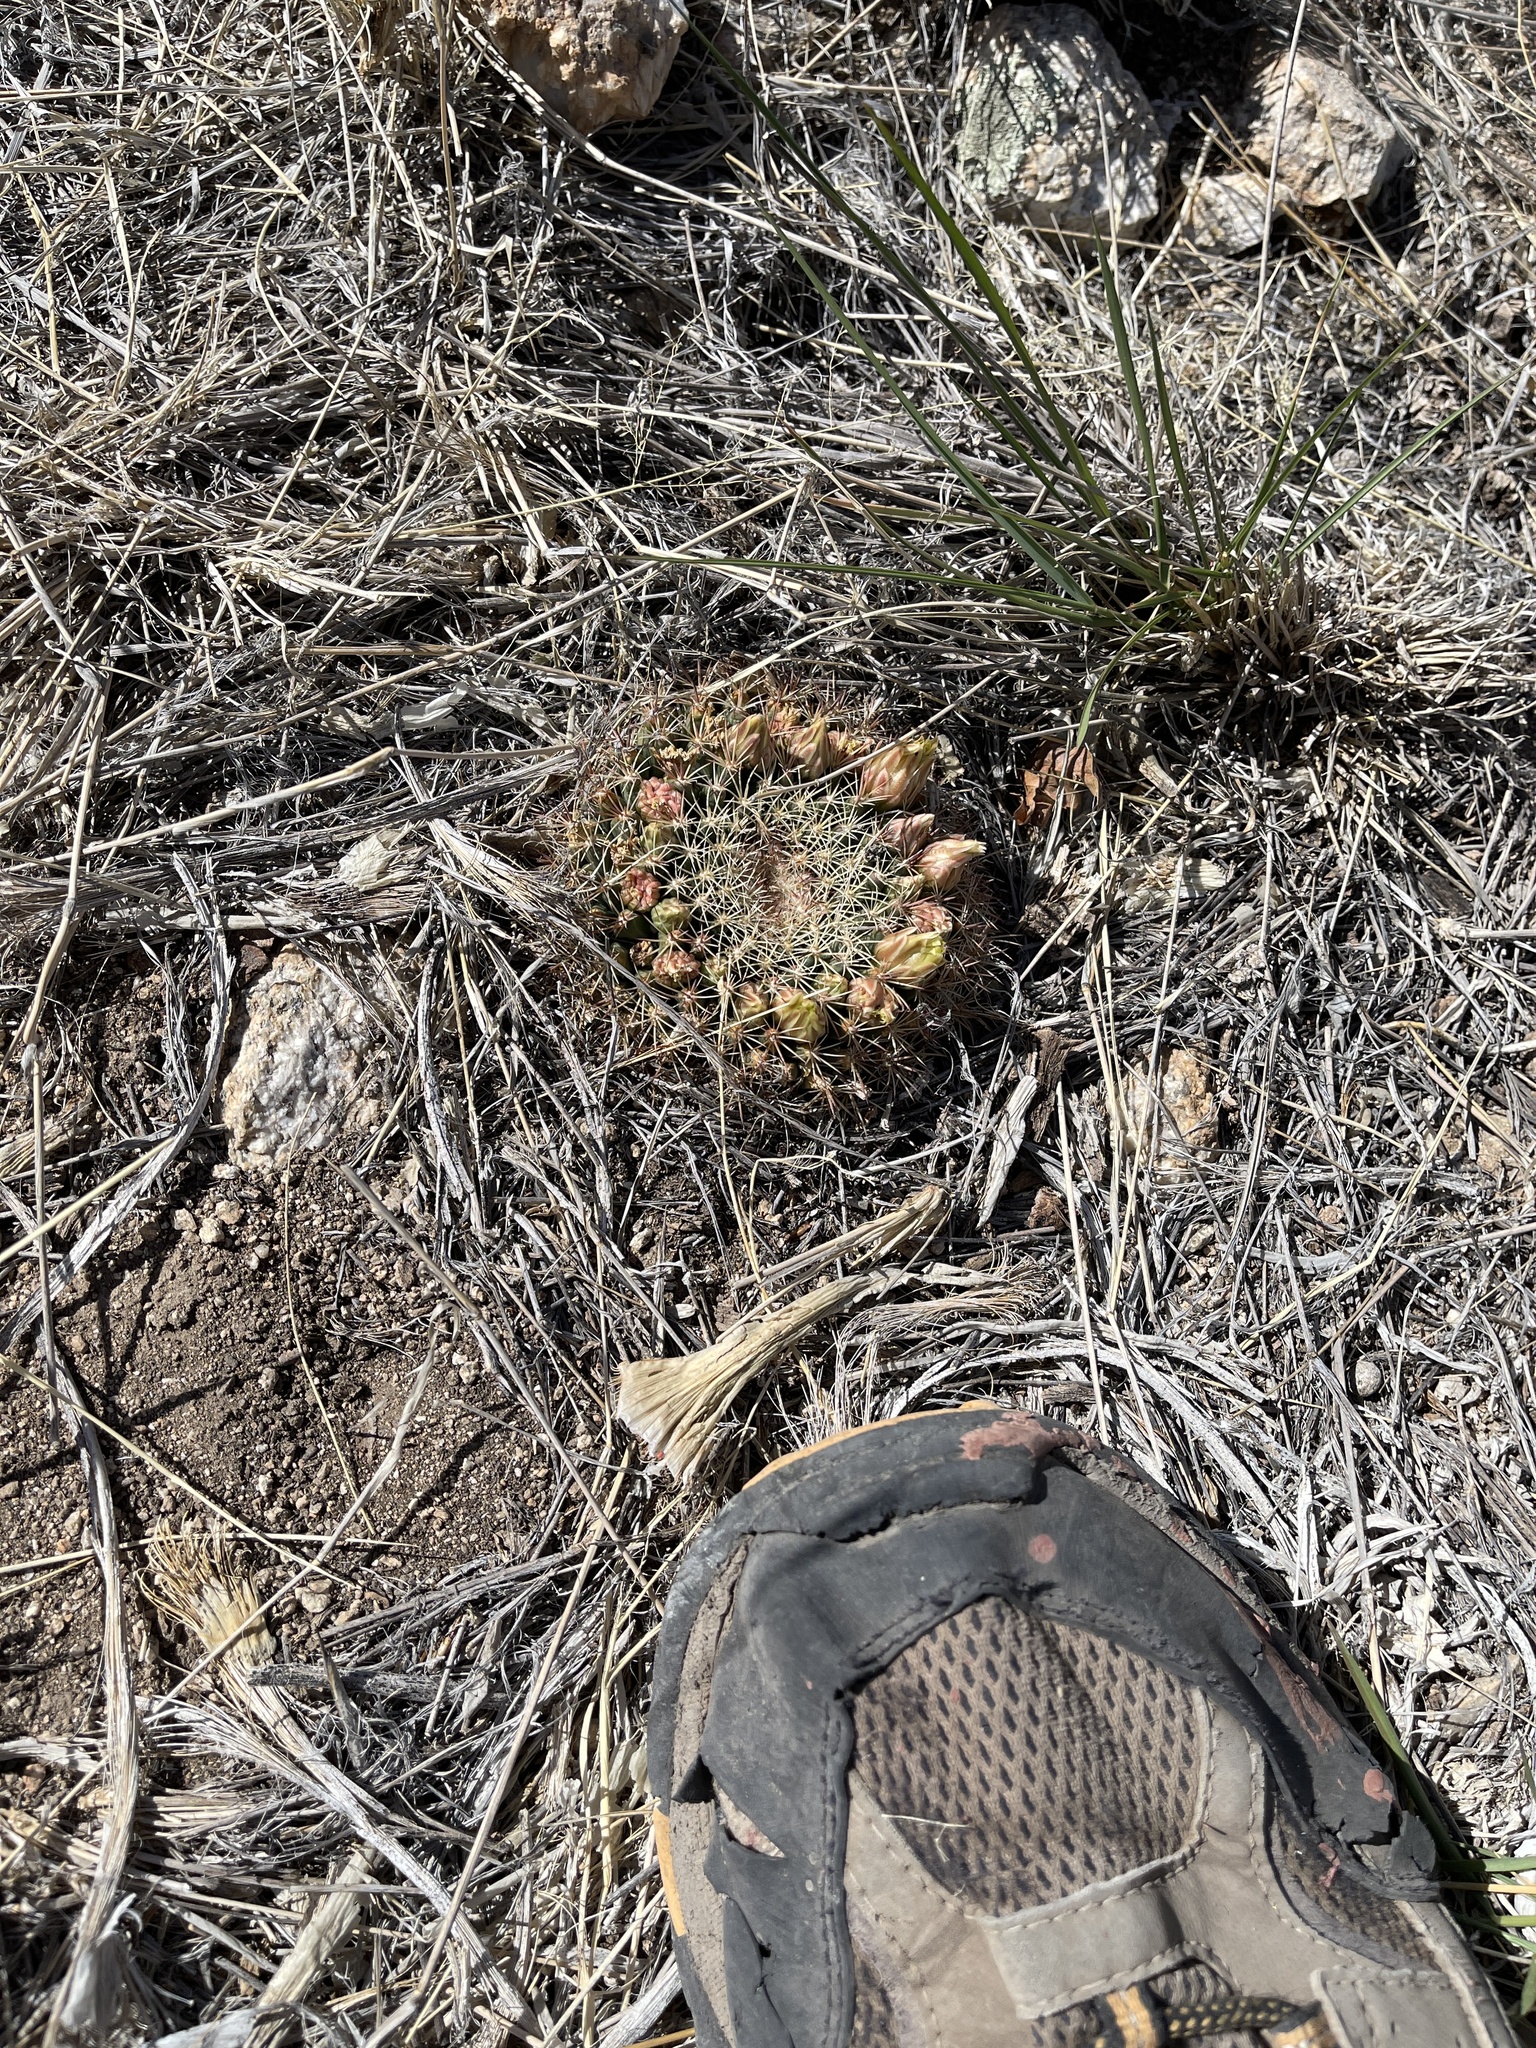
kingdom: Plantae
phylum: Tracheophyta
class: Magnoliopsida
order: Caryophyllales
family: Cactaceae
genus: Mammillaria
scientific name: Mammillaria heyderi
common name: Little nipple cactus
